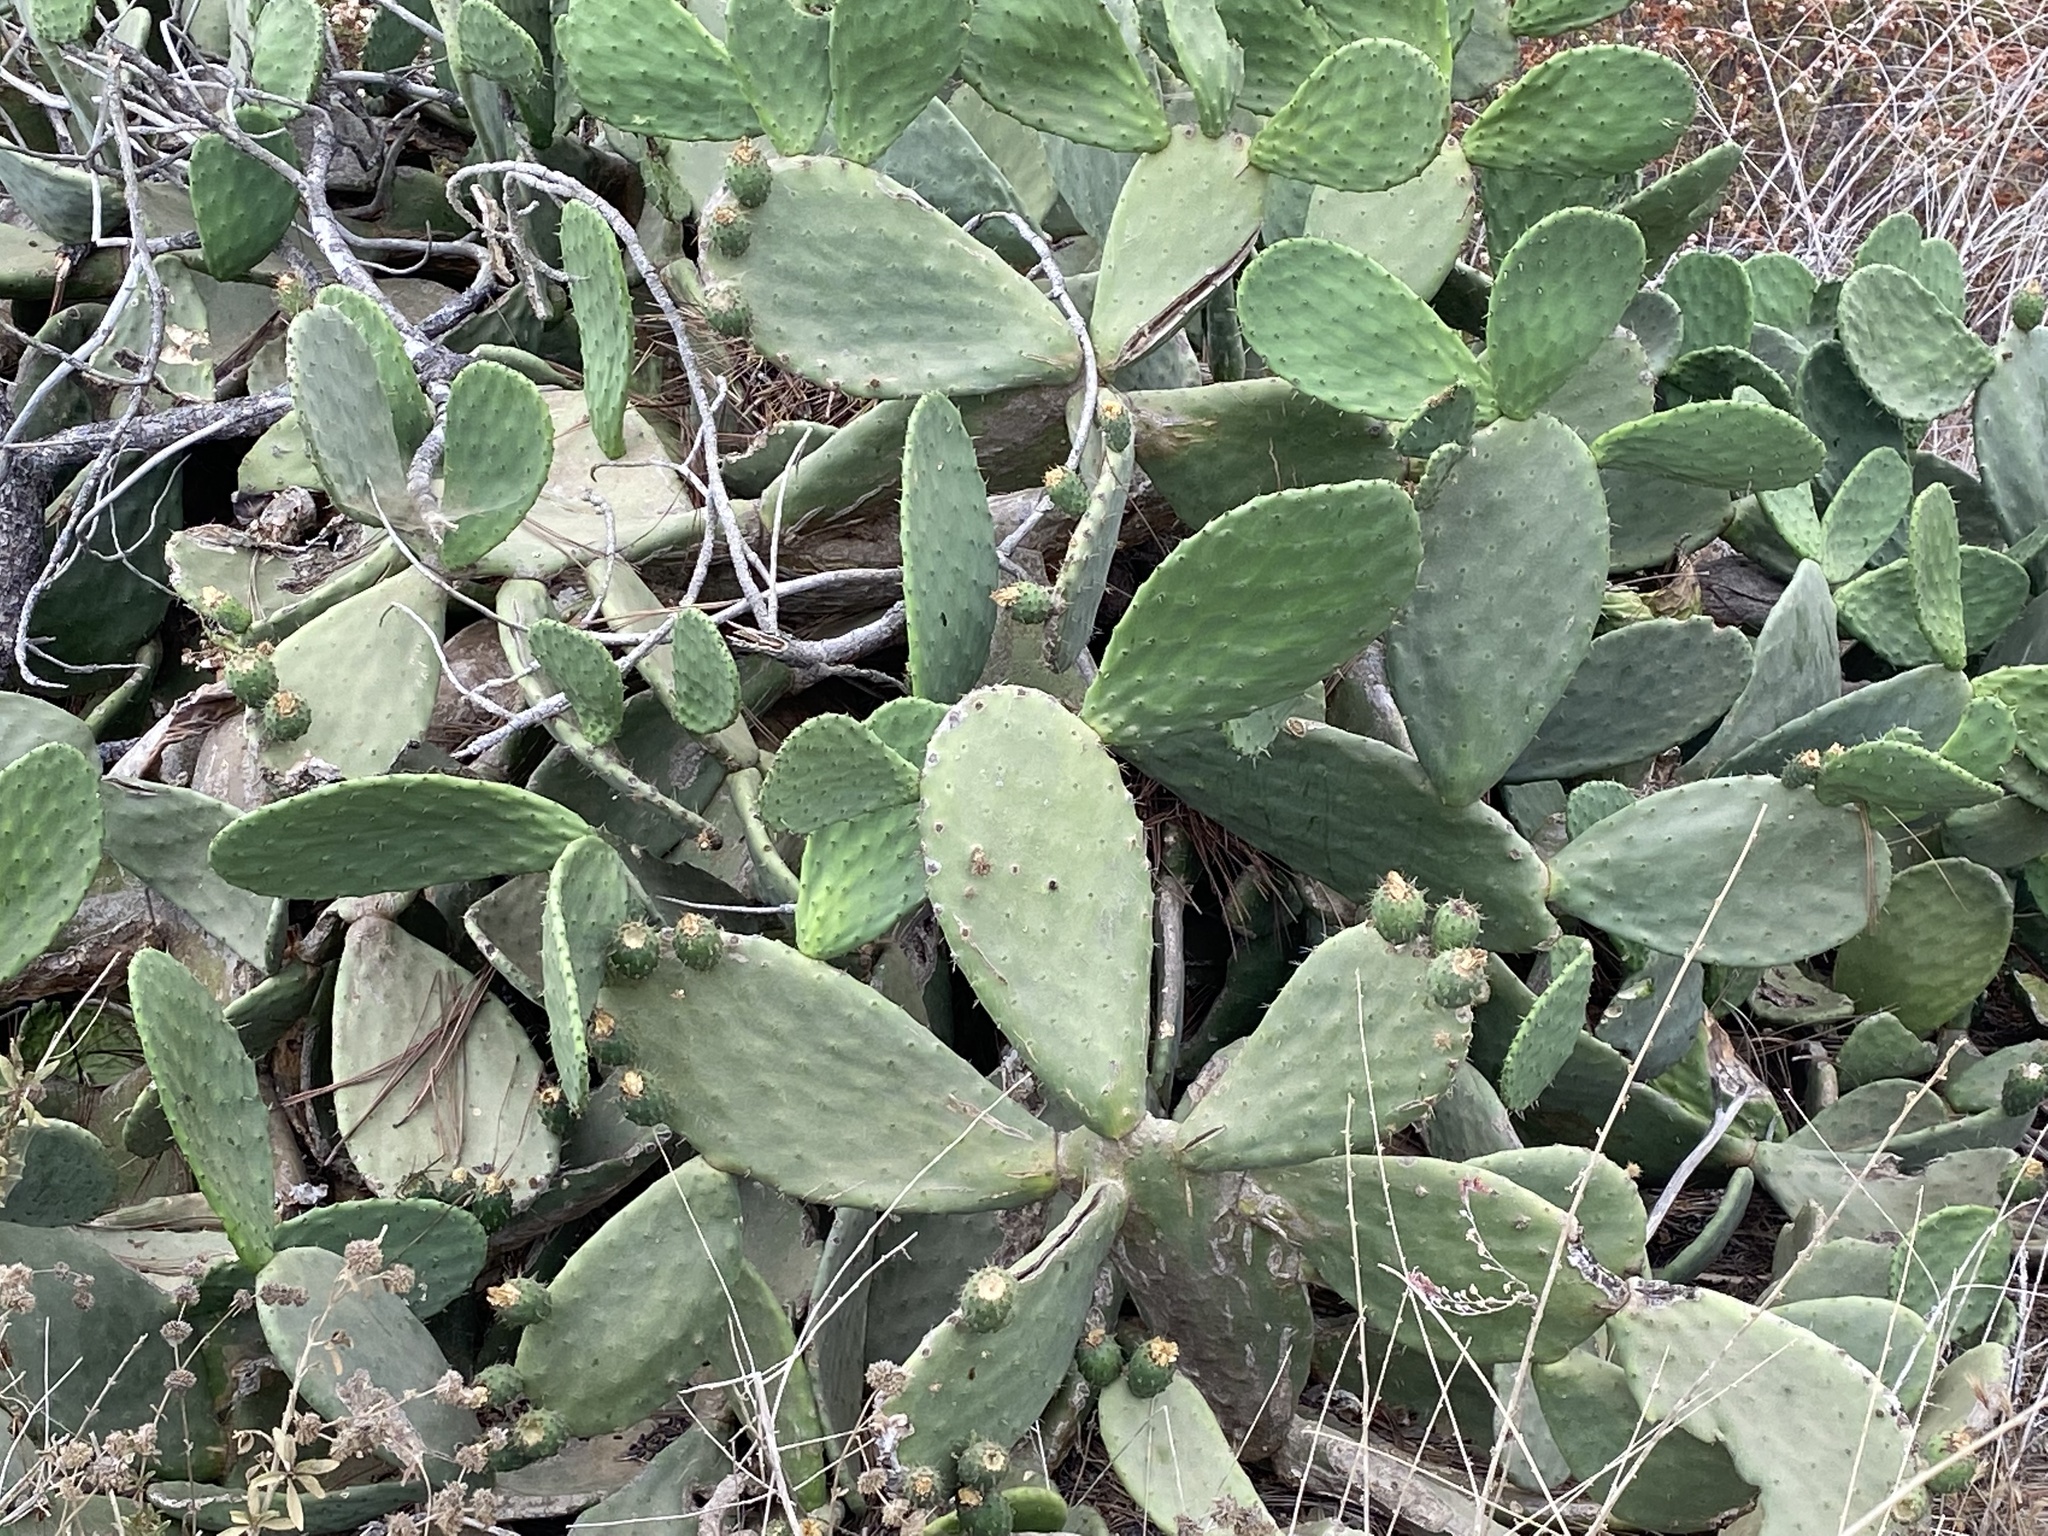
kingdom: Plantae
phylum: Tracheophyta
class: Magnoliopsida
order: Caryophyllales
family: Cactaceae
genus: Opuntia
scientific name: Opuntia ficus-indica
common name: Barbary fig
